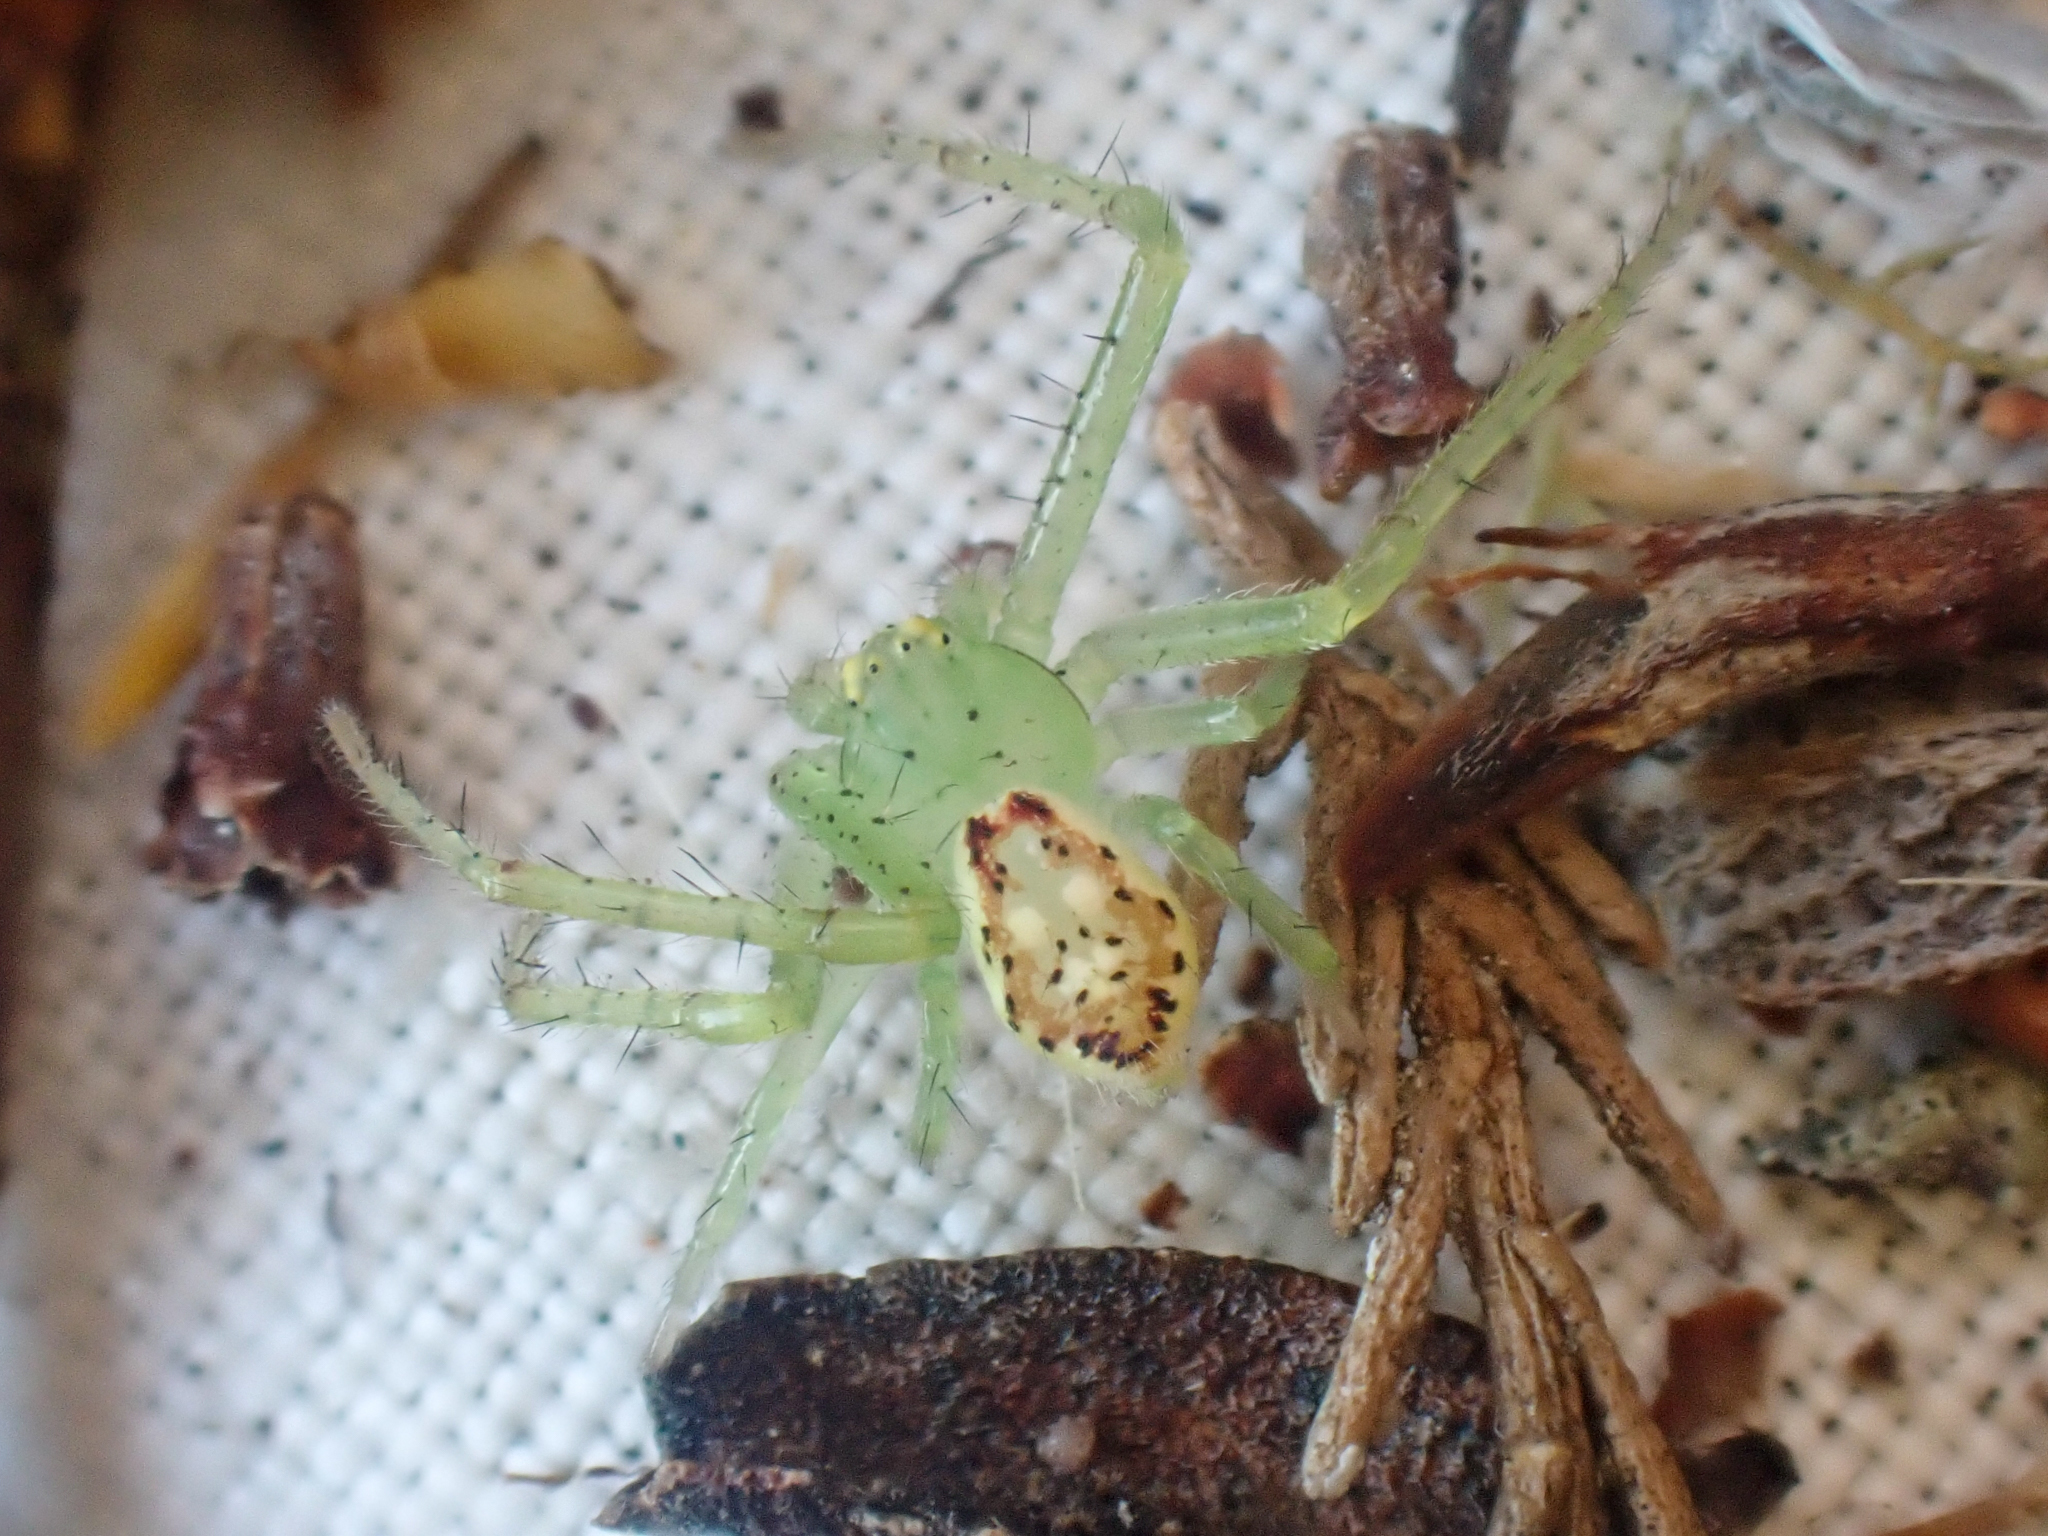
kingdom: Animalia
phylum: Arthropoda
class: Arachnida
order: Araneae
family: Thomisidae
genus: Diaea
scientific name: Diaea livens
